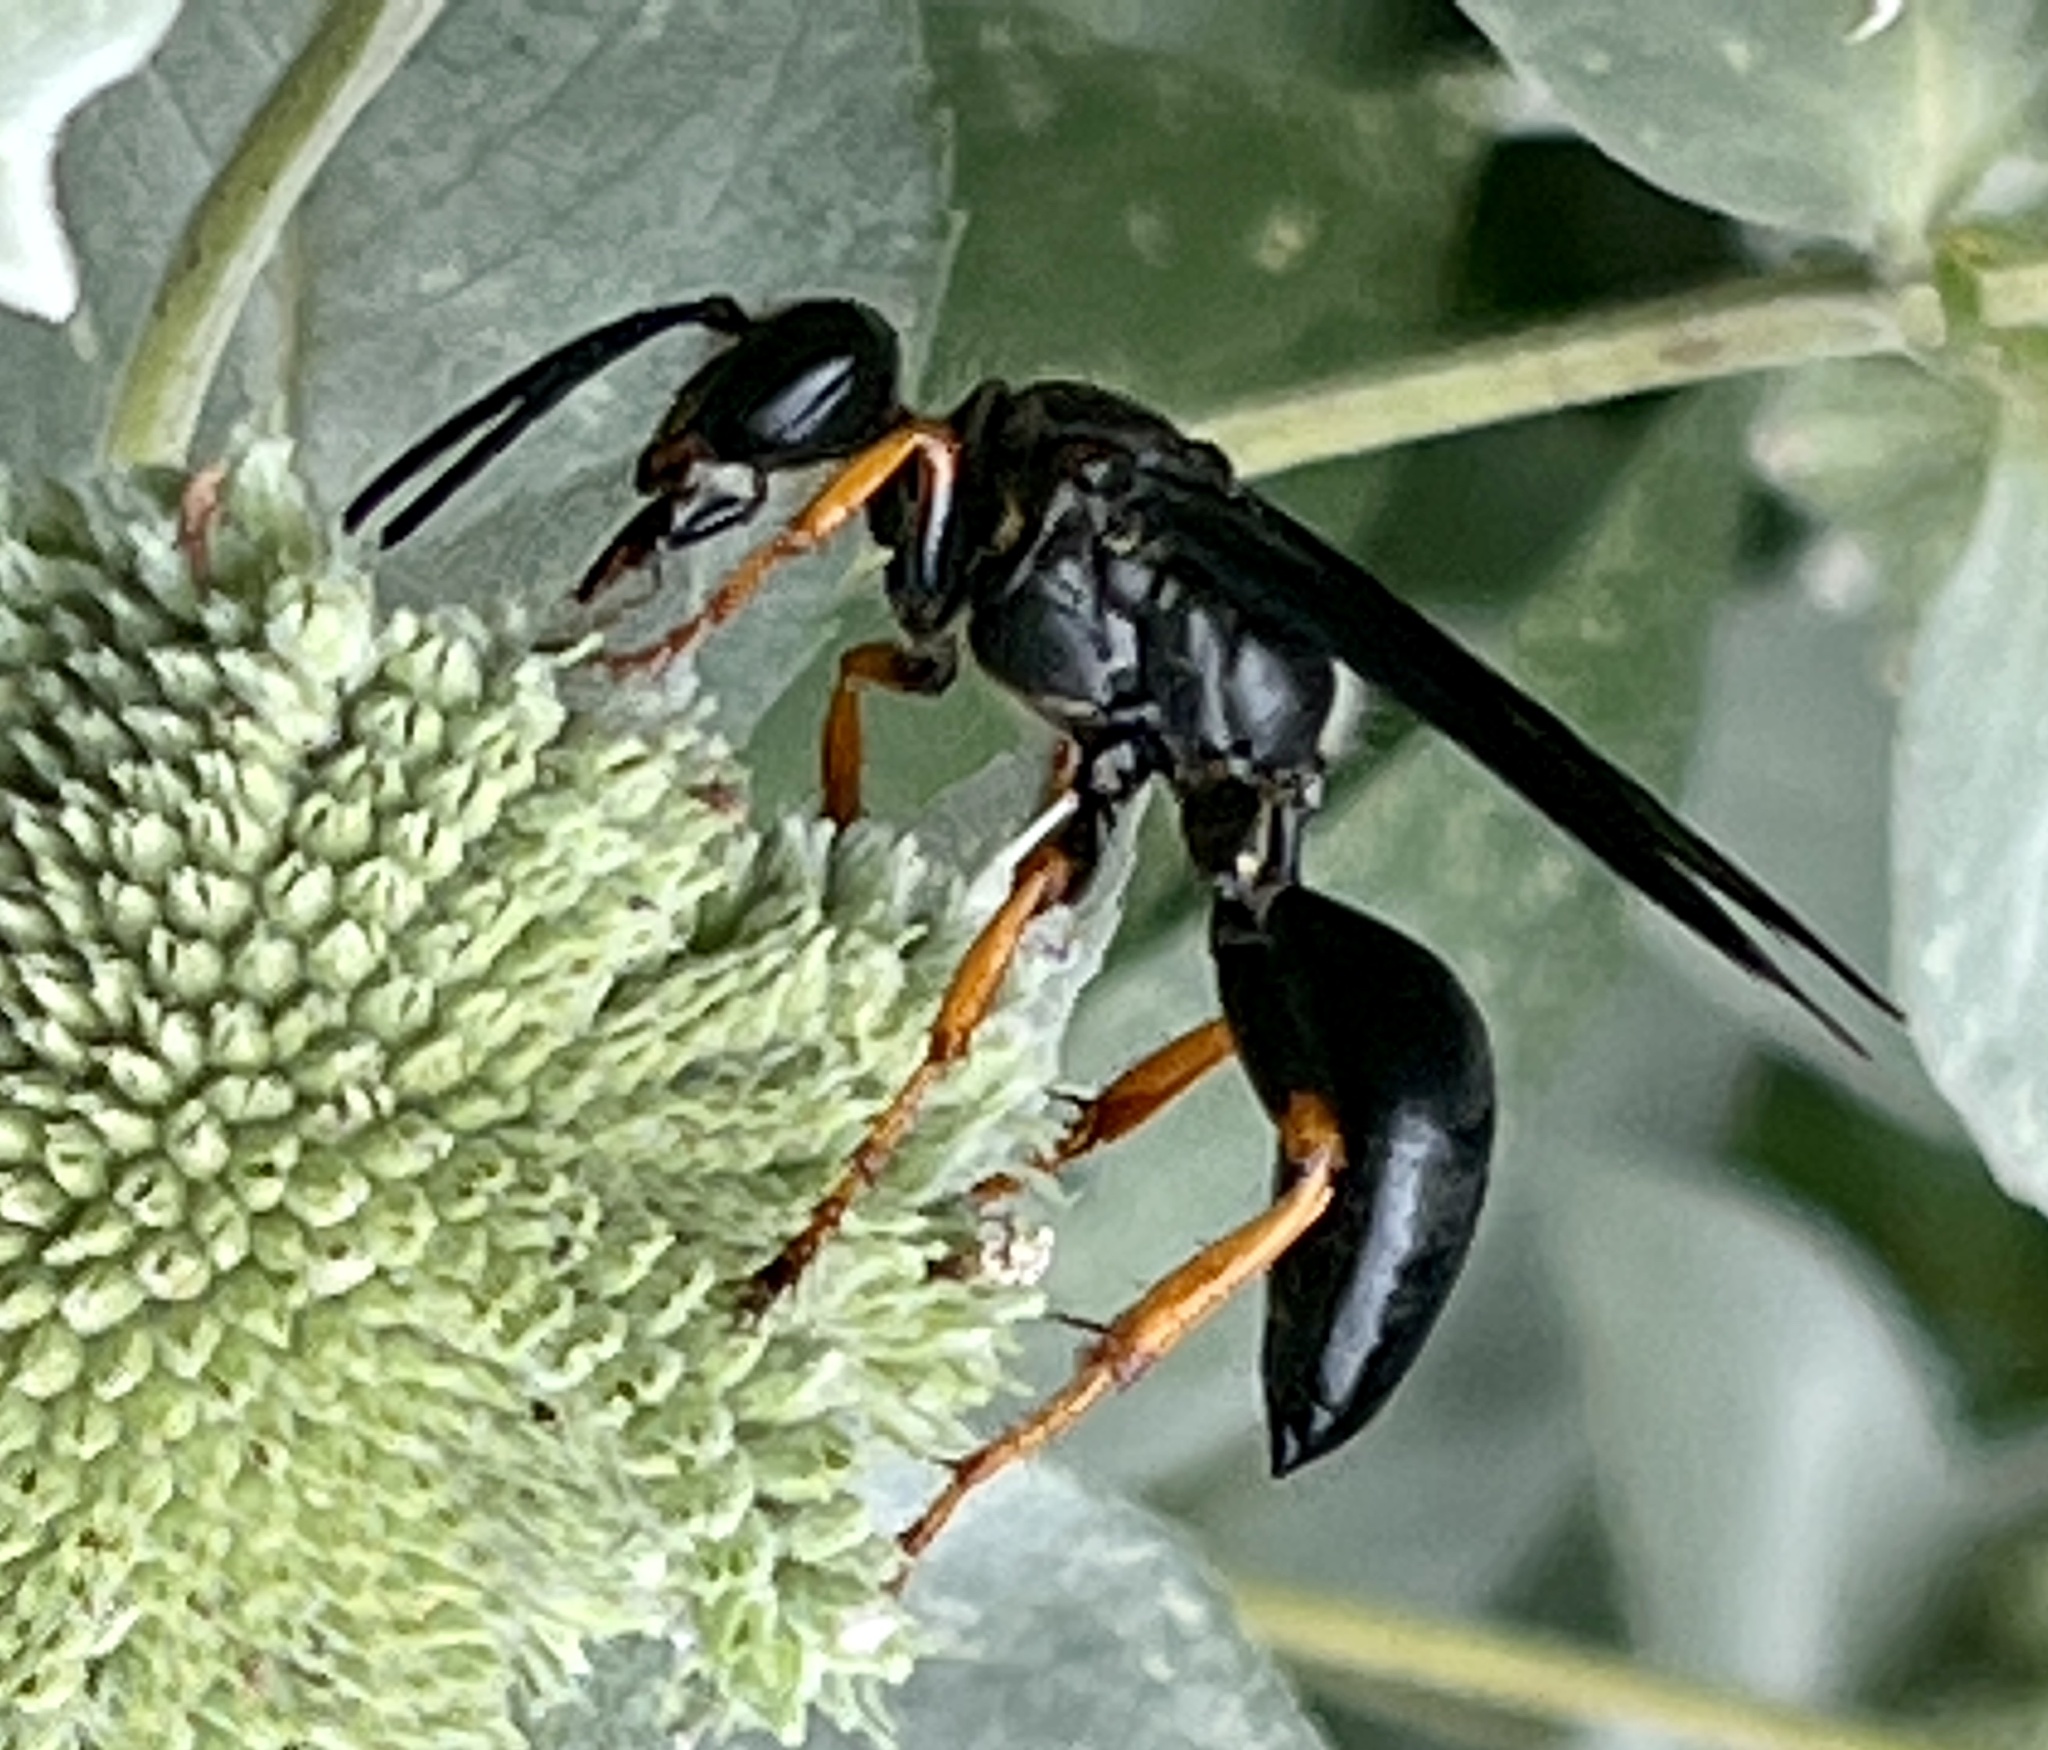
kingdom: Animalia
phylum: Arthropoda
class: Insecta
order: Hymenoptera
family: Sphecidae
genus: Sphex
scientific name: Sphex nudus
